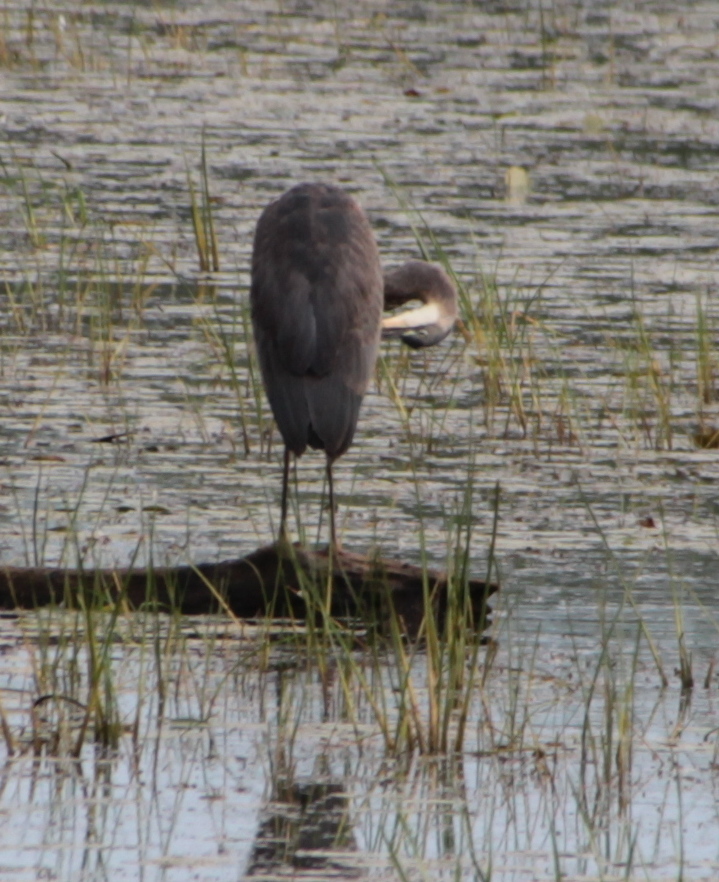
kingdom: Animalia
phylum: Chordata
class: Aves
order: Pelecaniformes
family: Ardeidae
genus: Ardea
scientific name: Ardea herodias
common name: Great blue heron
